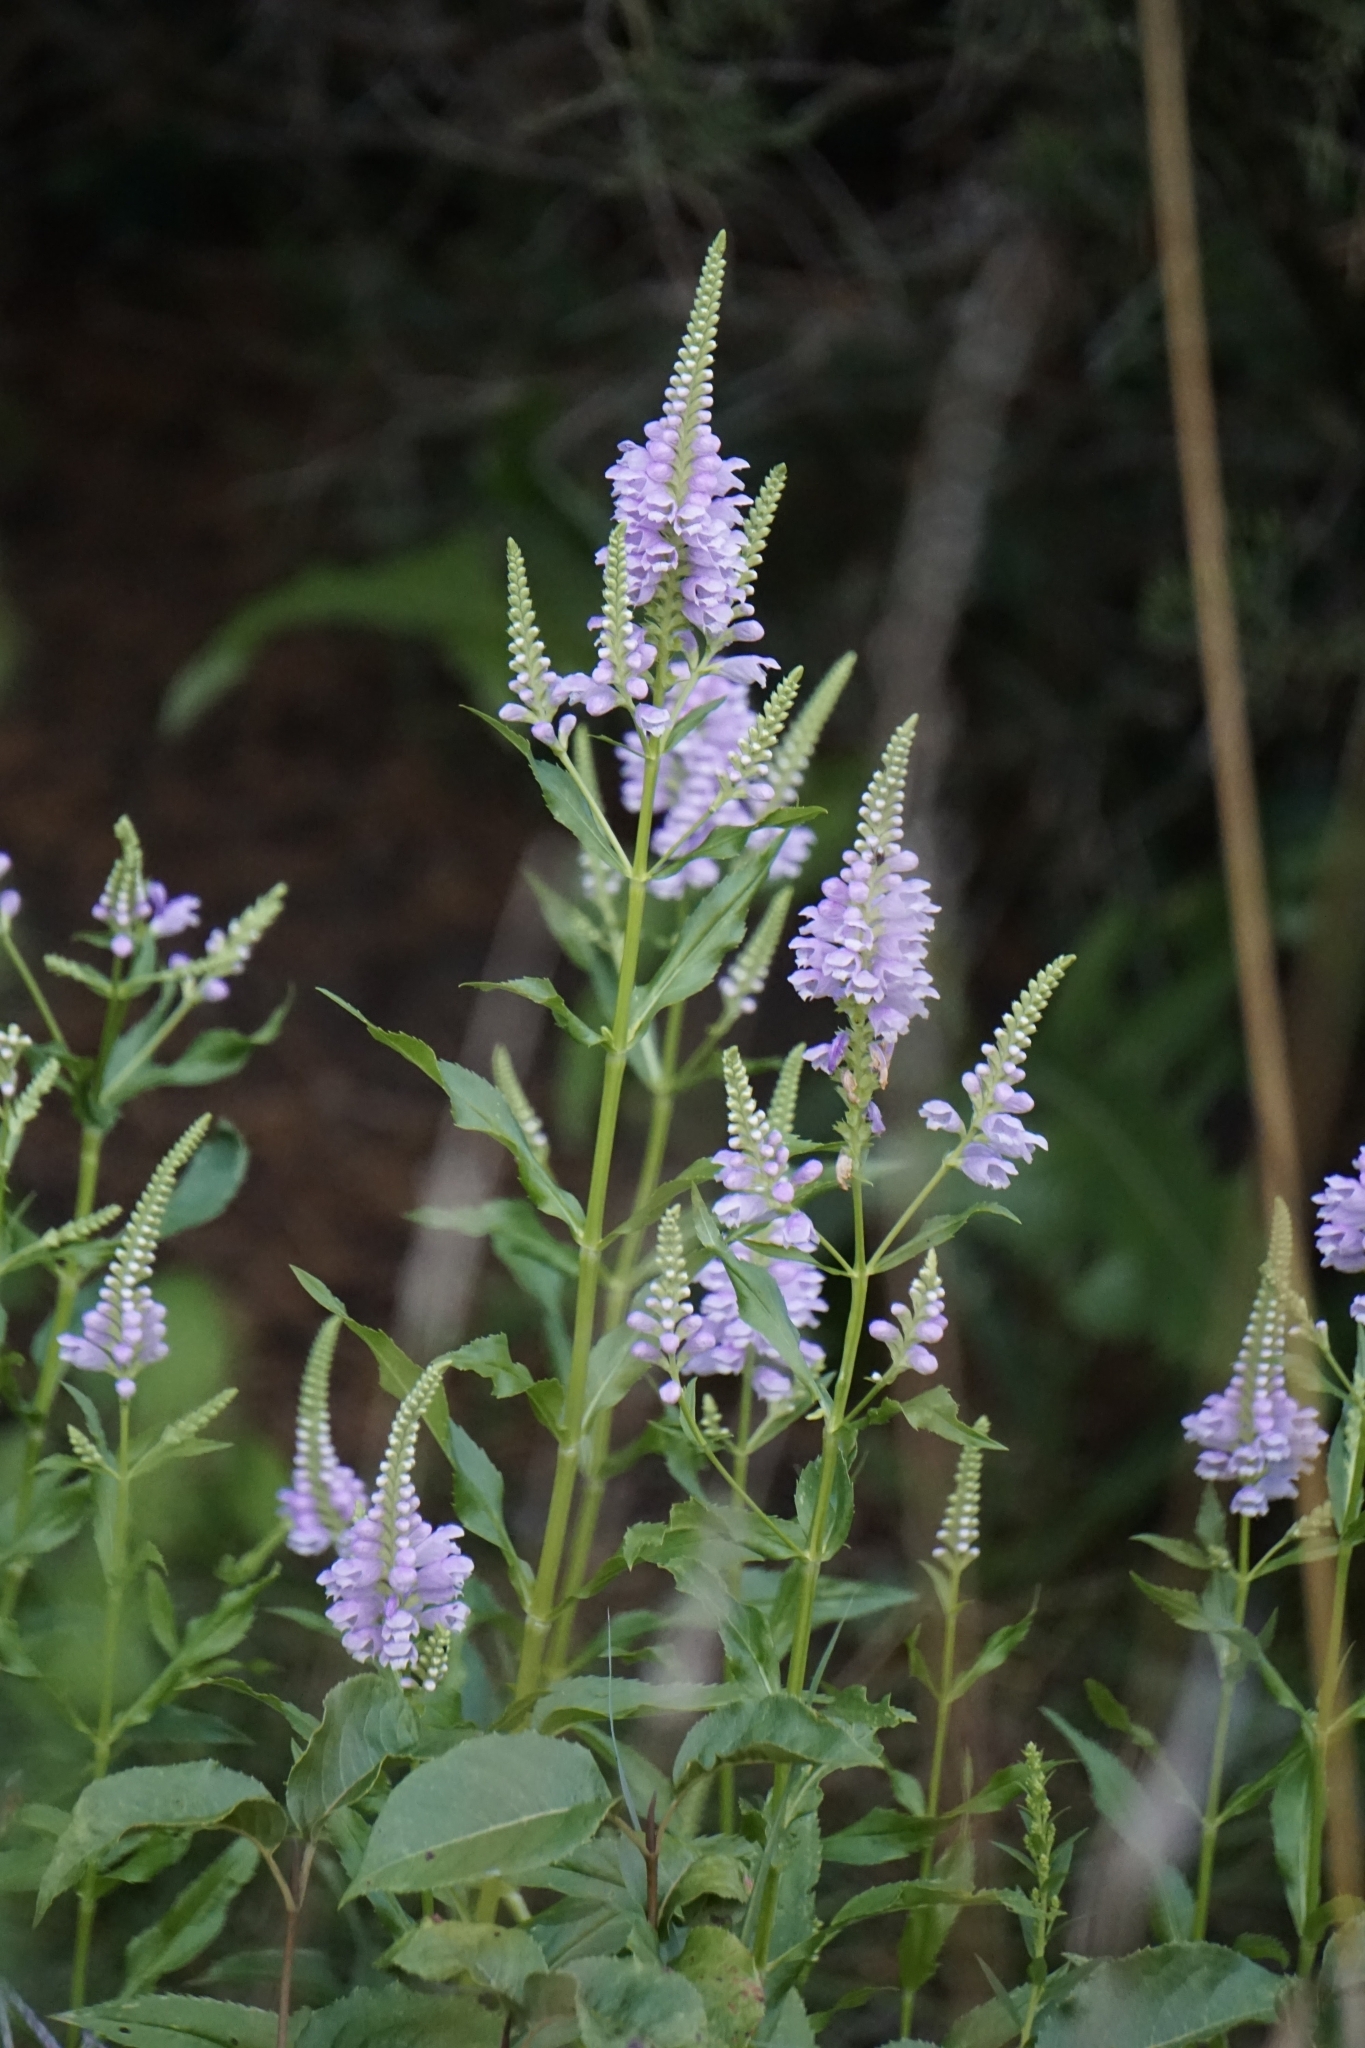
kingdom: Plantae
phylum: Tracheophyta
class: Magnoliopsida
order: Lamiales
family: Lamiaceae
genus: Physostegia
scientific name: Physostegia virginiana
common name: Obedient-plant
